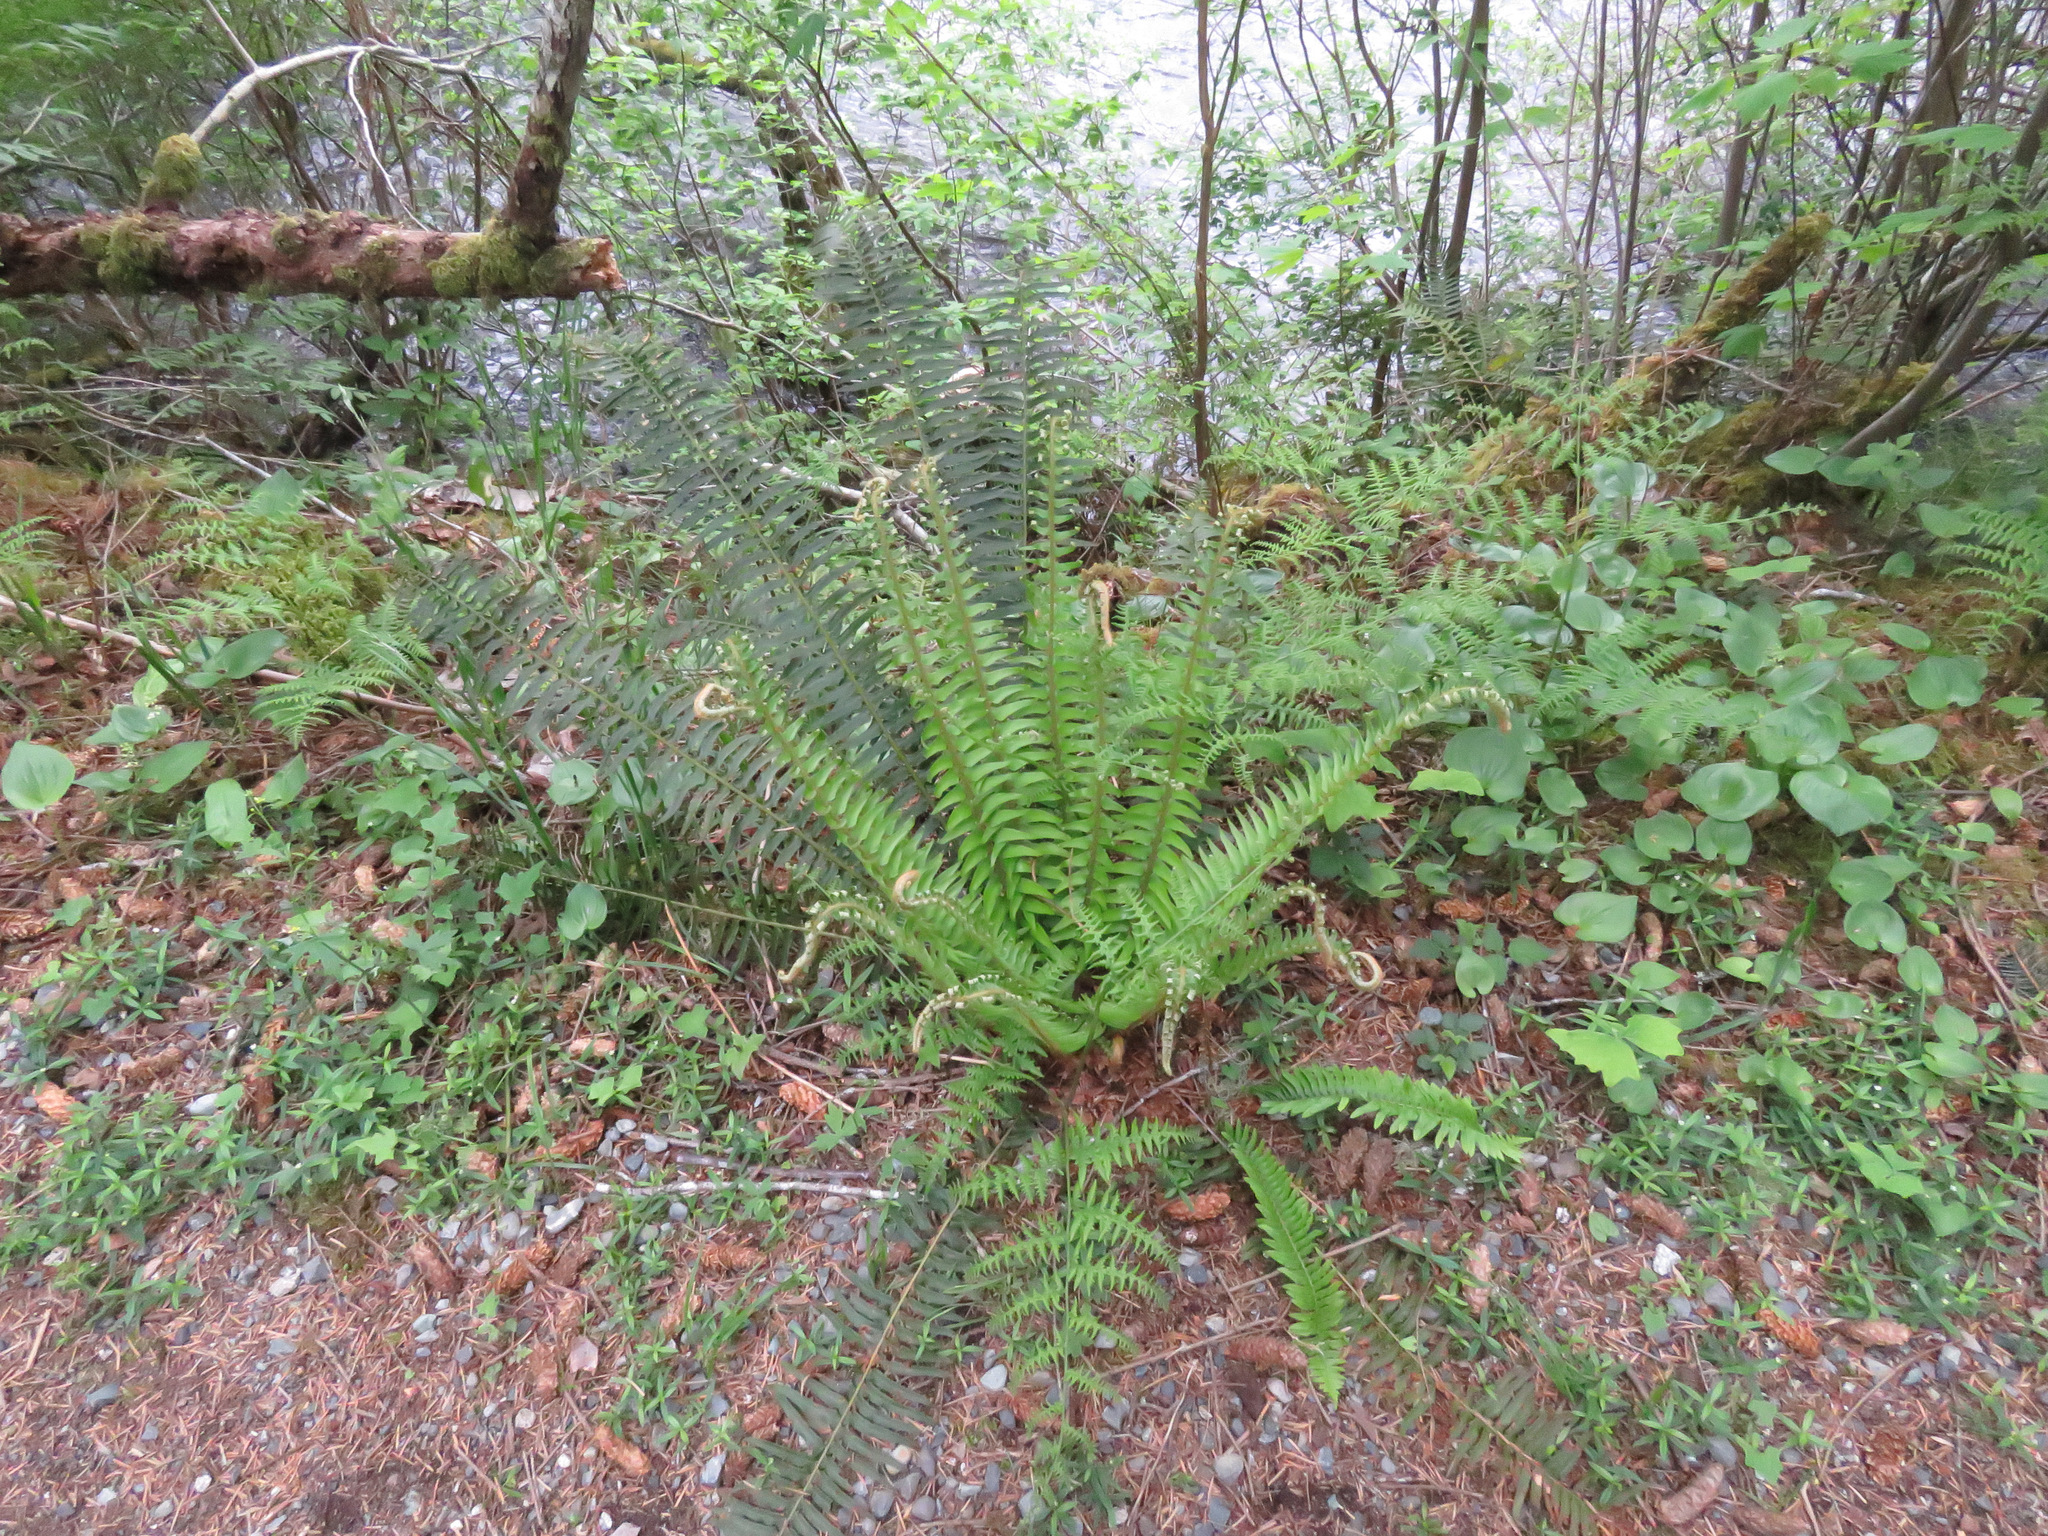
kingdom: Plantae
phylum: Tracheophyta
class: Polypodiopsida
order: Polypodiales
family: Dryopteridaceae
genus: Polystichum
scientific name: Polystichum munitum
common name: Western sword-fern
